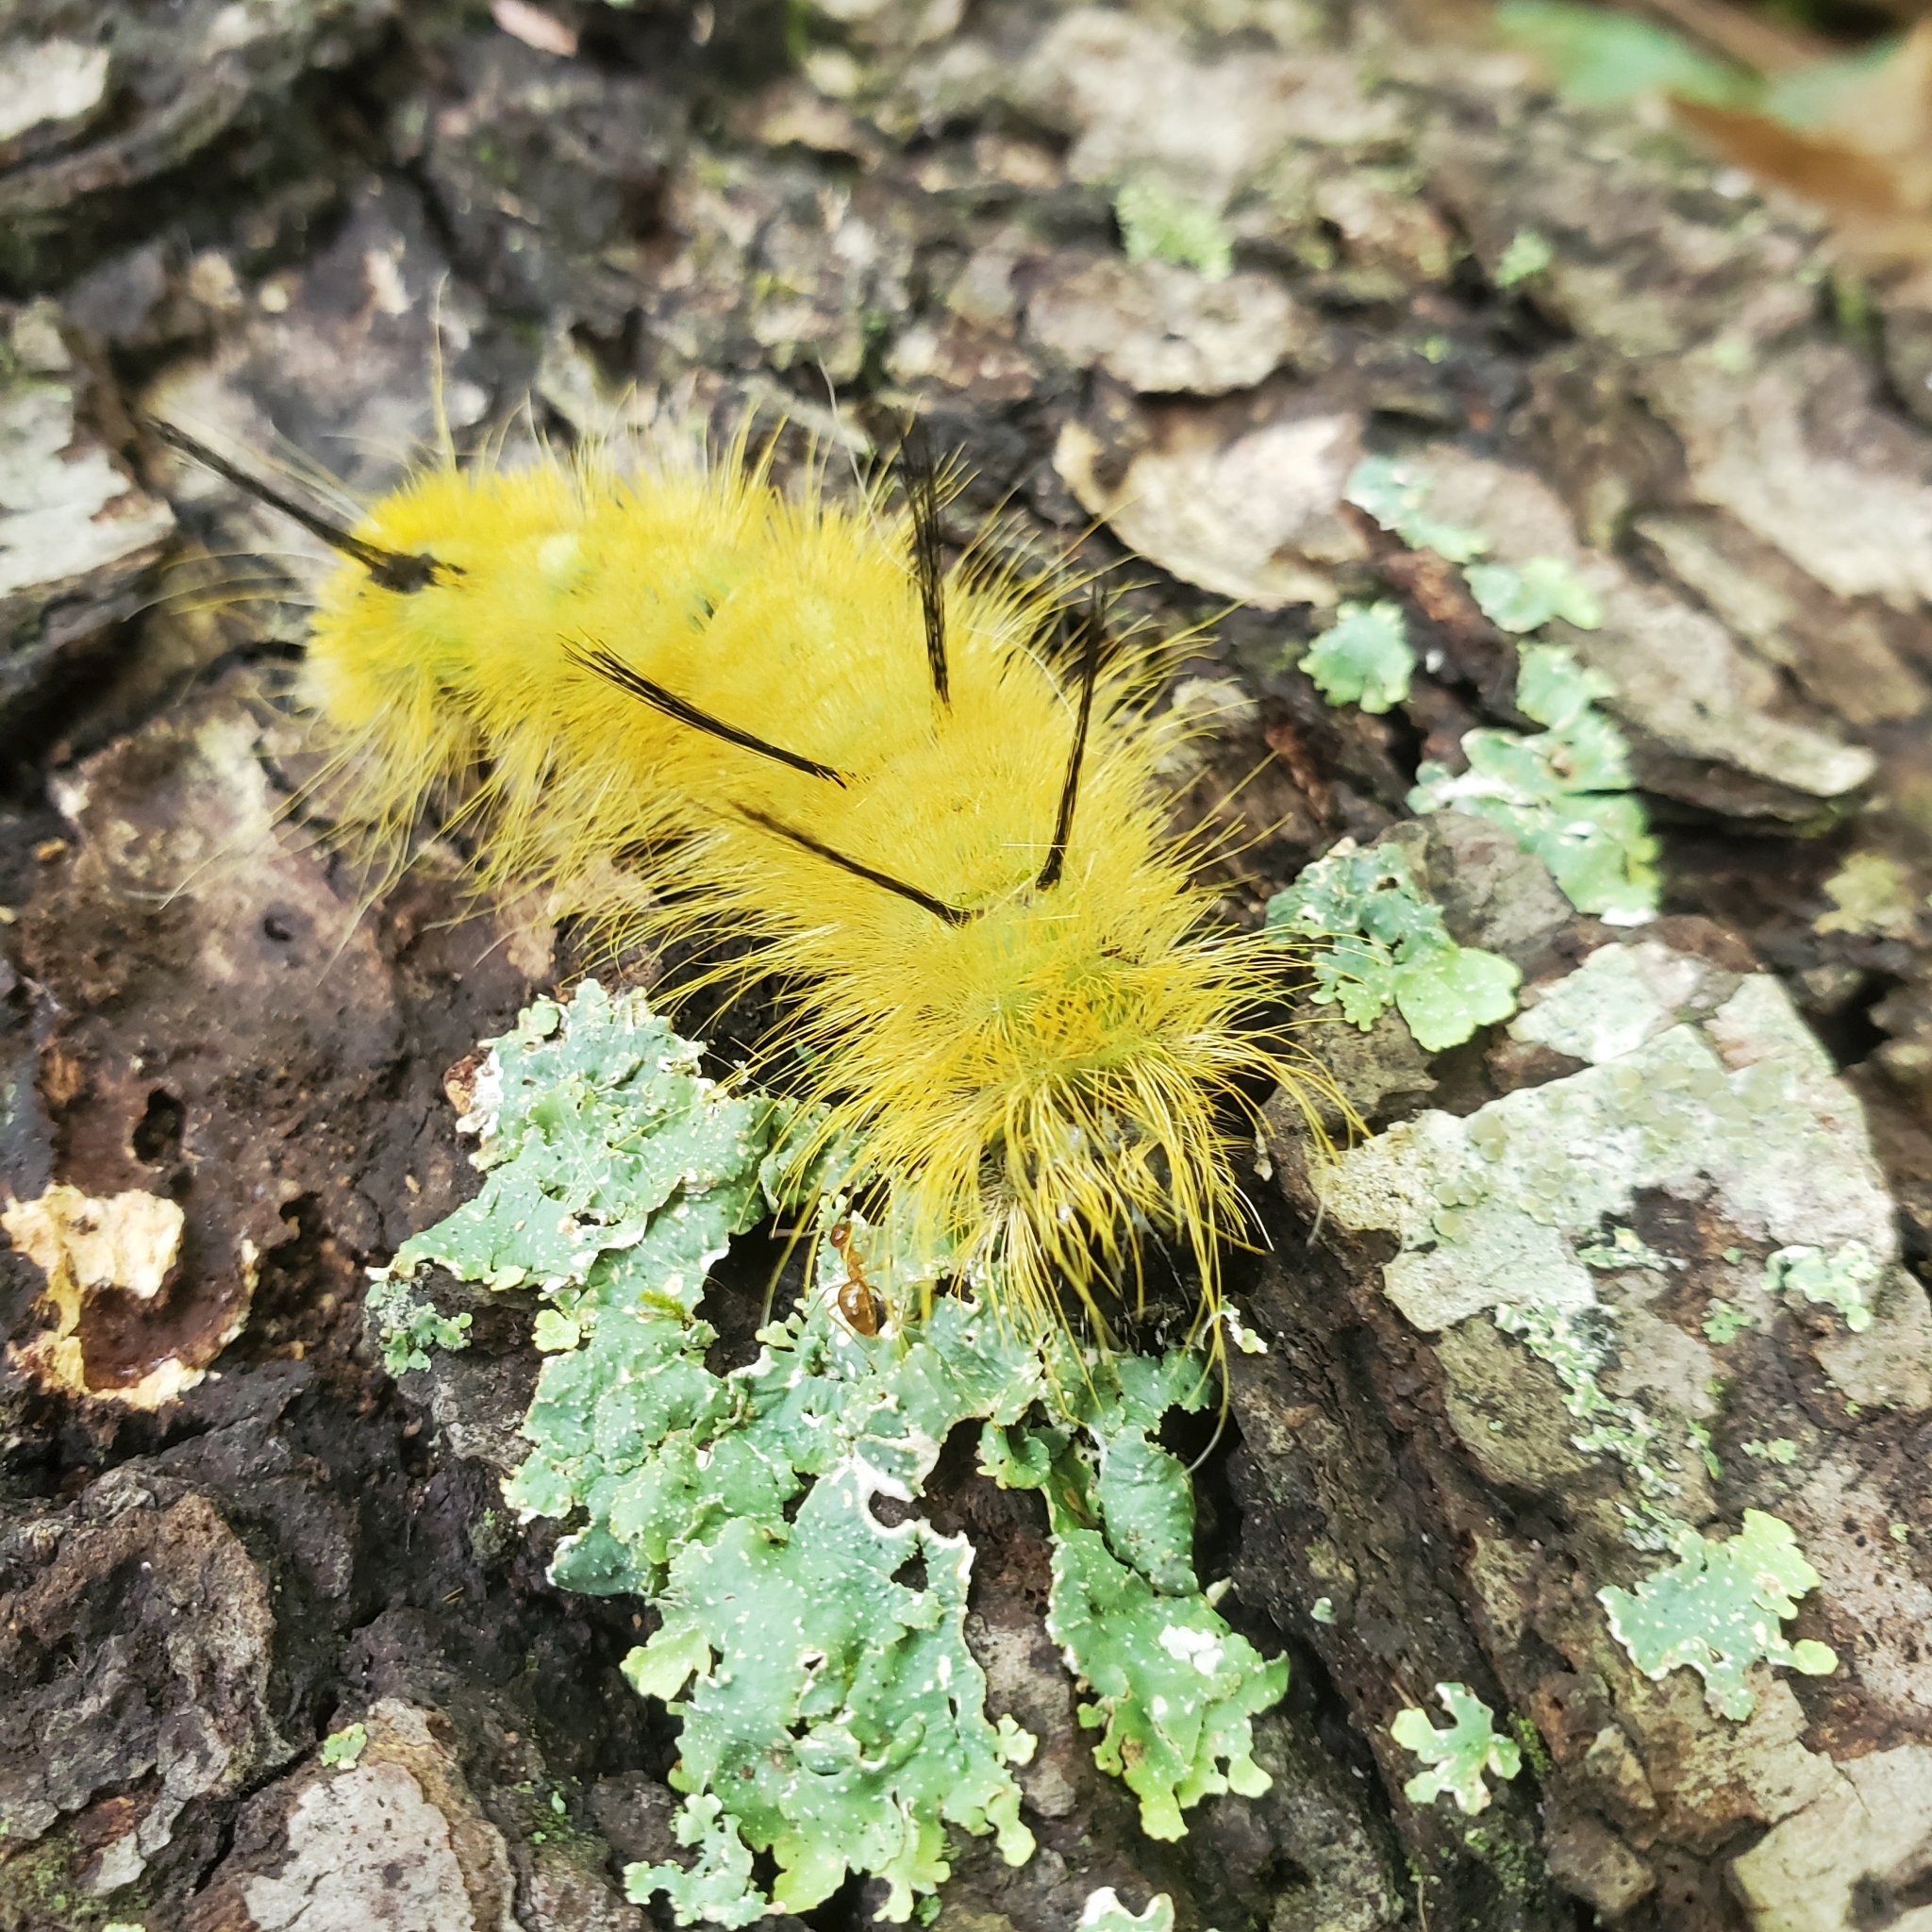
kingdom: Animalia
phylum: Arthropoda
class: Insecta
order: Lepidoptera
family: Noctuidae
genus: Acronicta
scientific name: Acronicta americana
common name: American dagger
